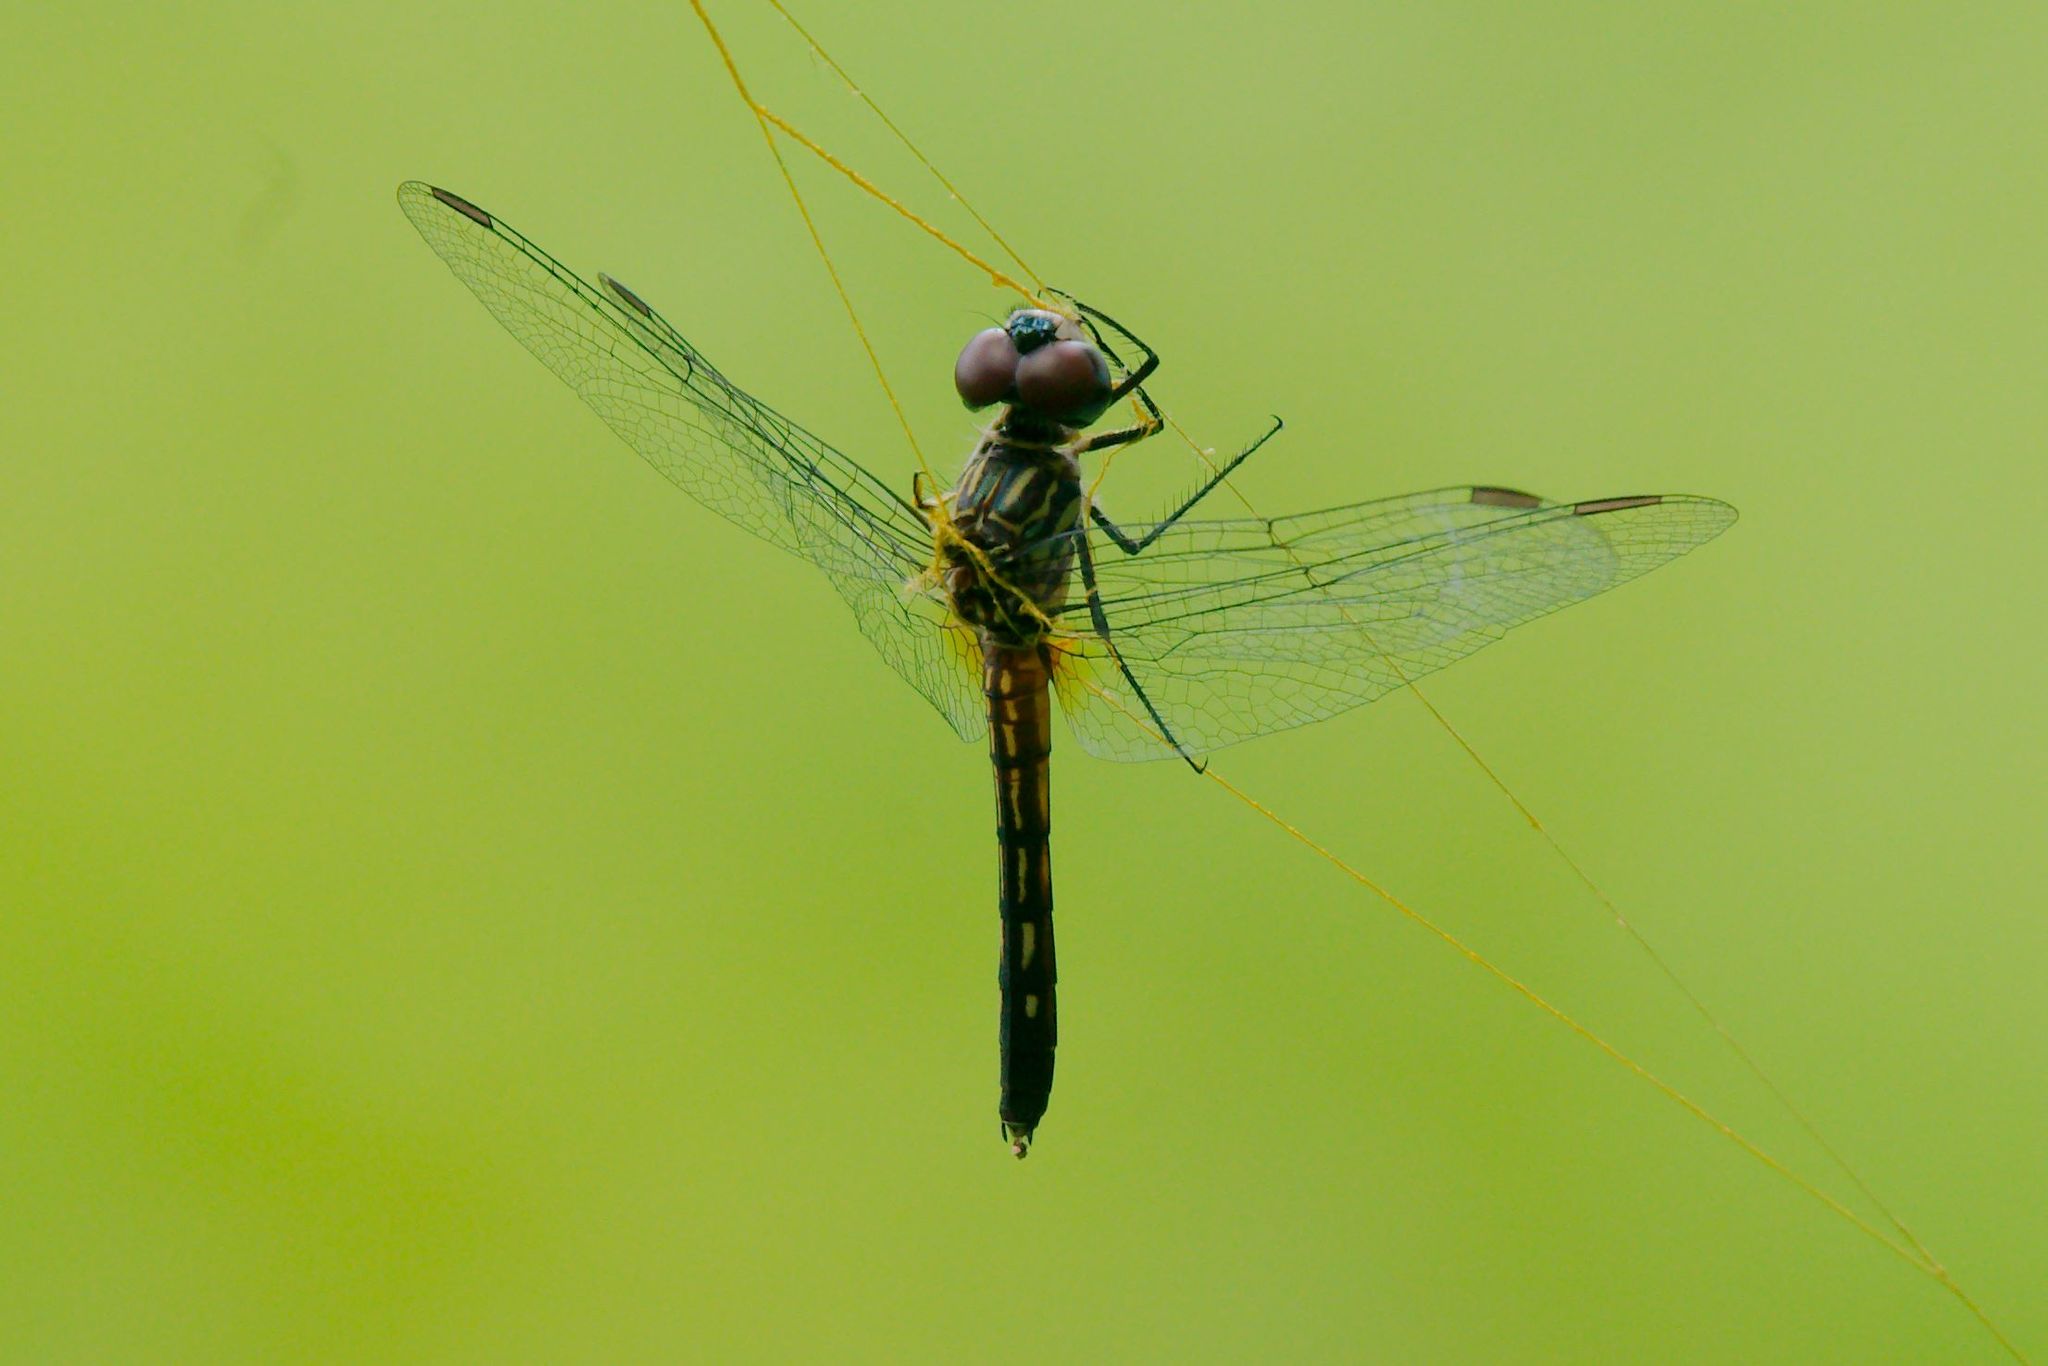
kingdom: Animalia
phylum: Arthropoda
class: Insecta
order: Odonata
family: Libellulidae
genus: Pachydiplax
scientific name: Pachydiplax longipennis
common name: Blue dasher
